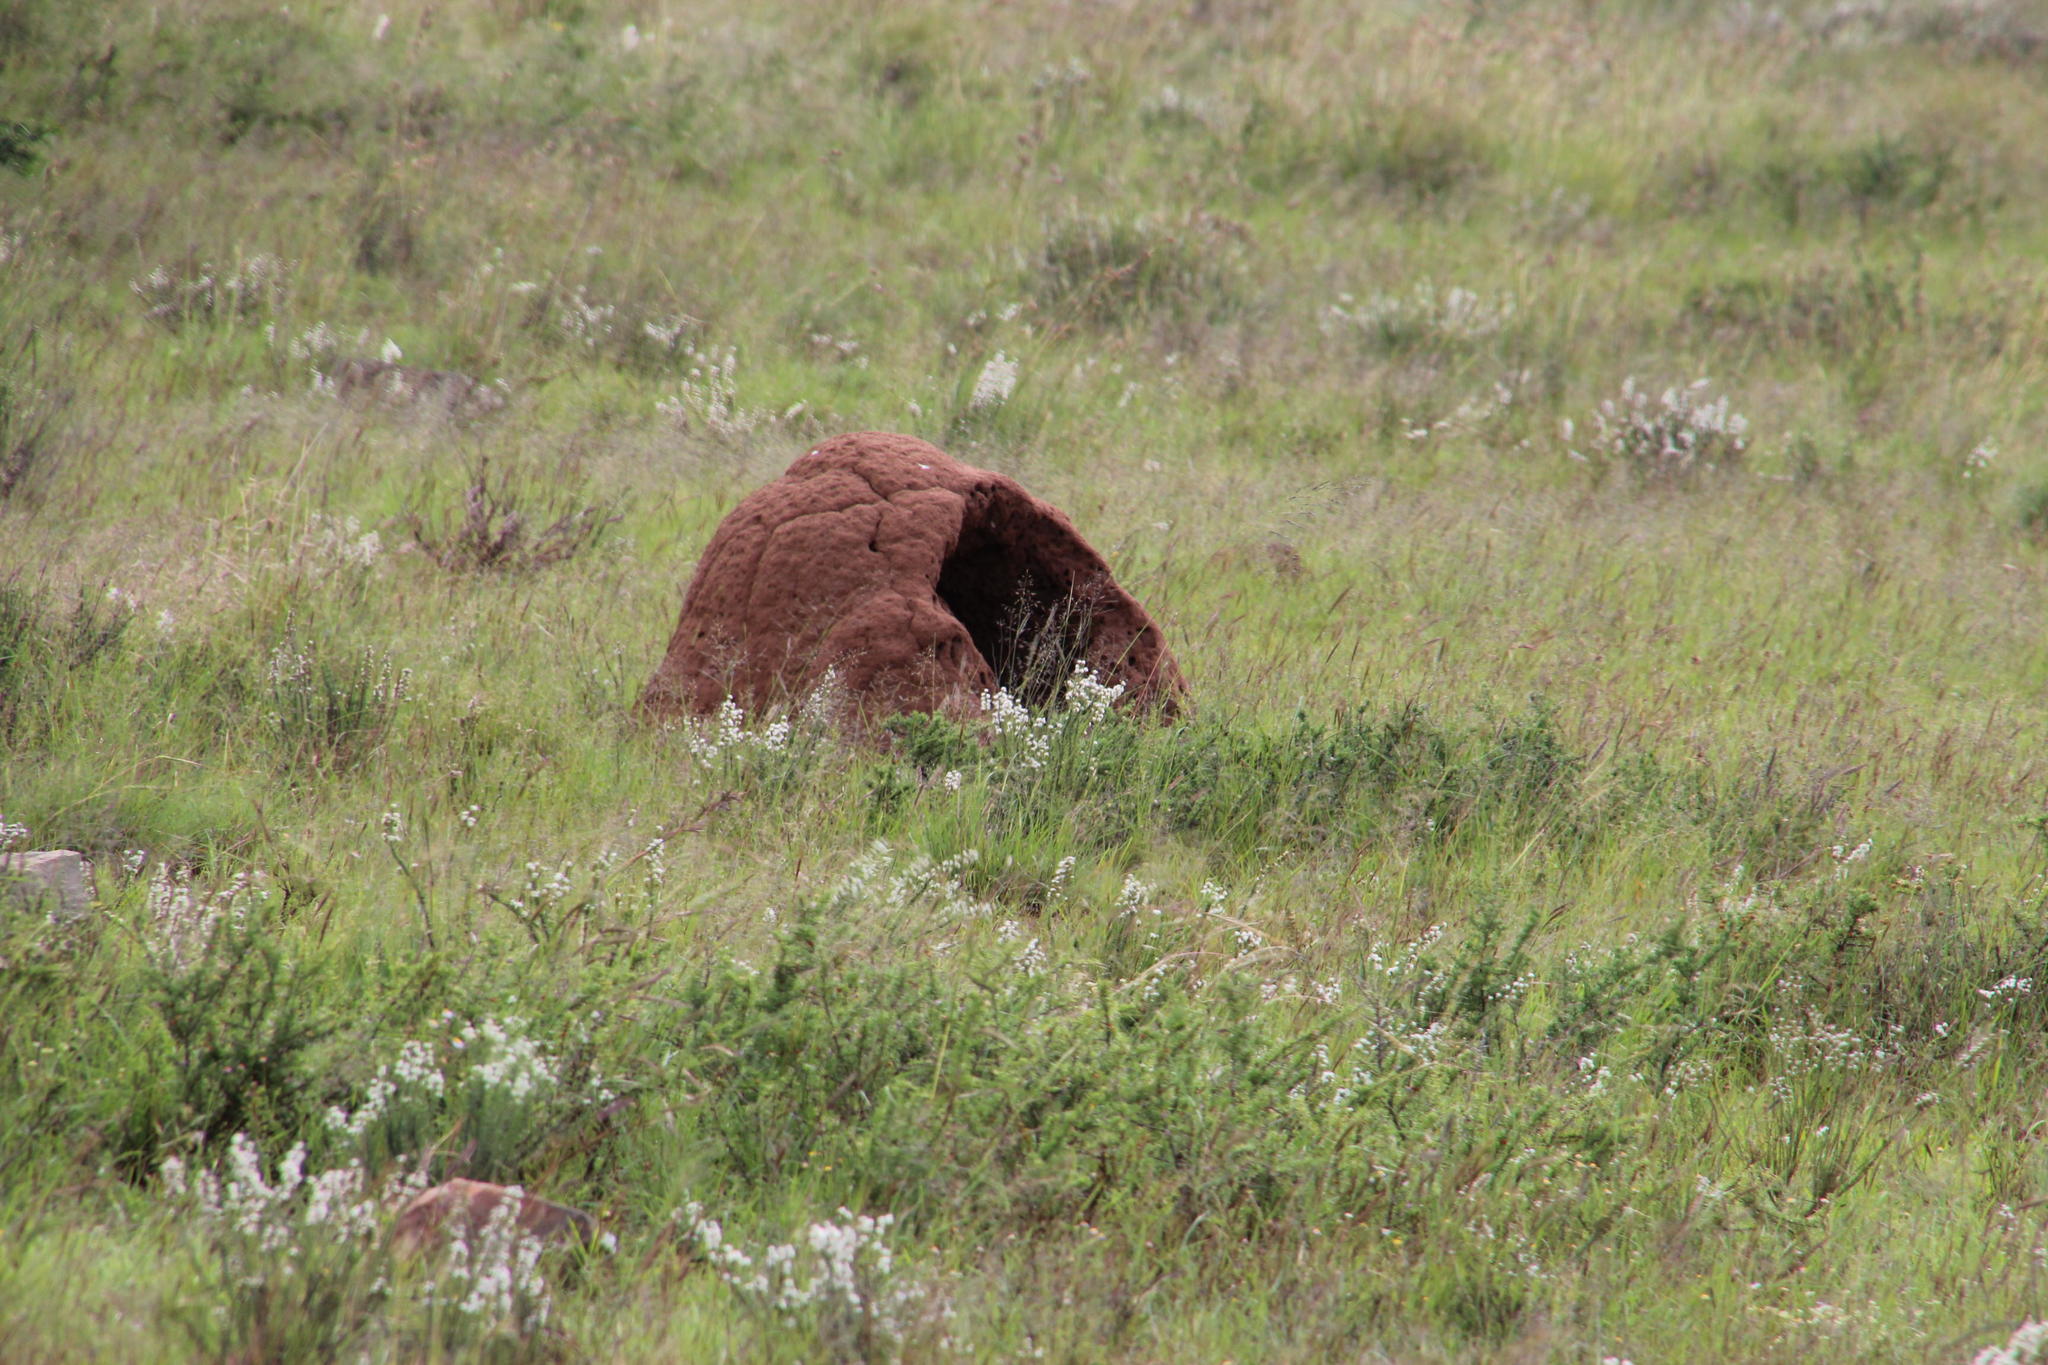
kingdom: Animalia
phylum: Chordata
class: Mammalia
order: Tubulidentata
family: Orycteropodidae
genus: Orycteropus
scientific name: Orycteropus afer
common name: Aardvark
